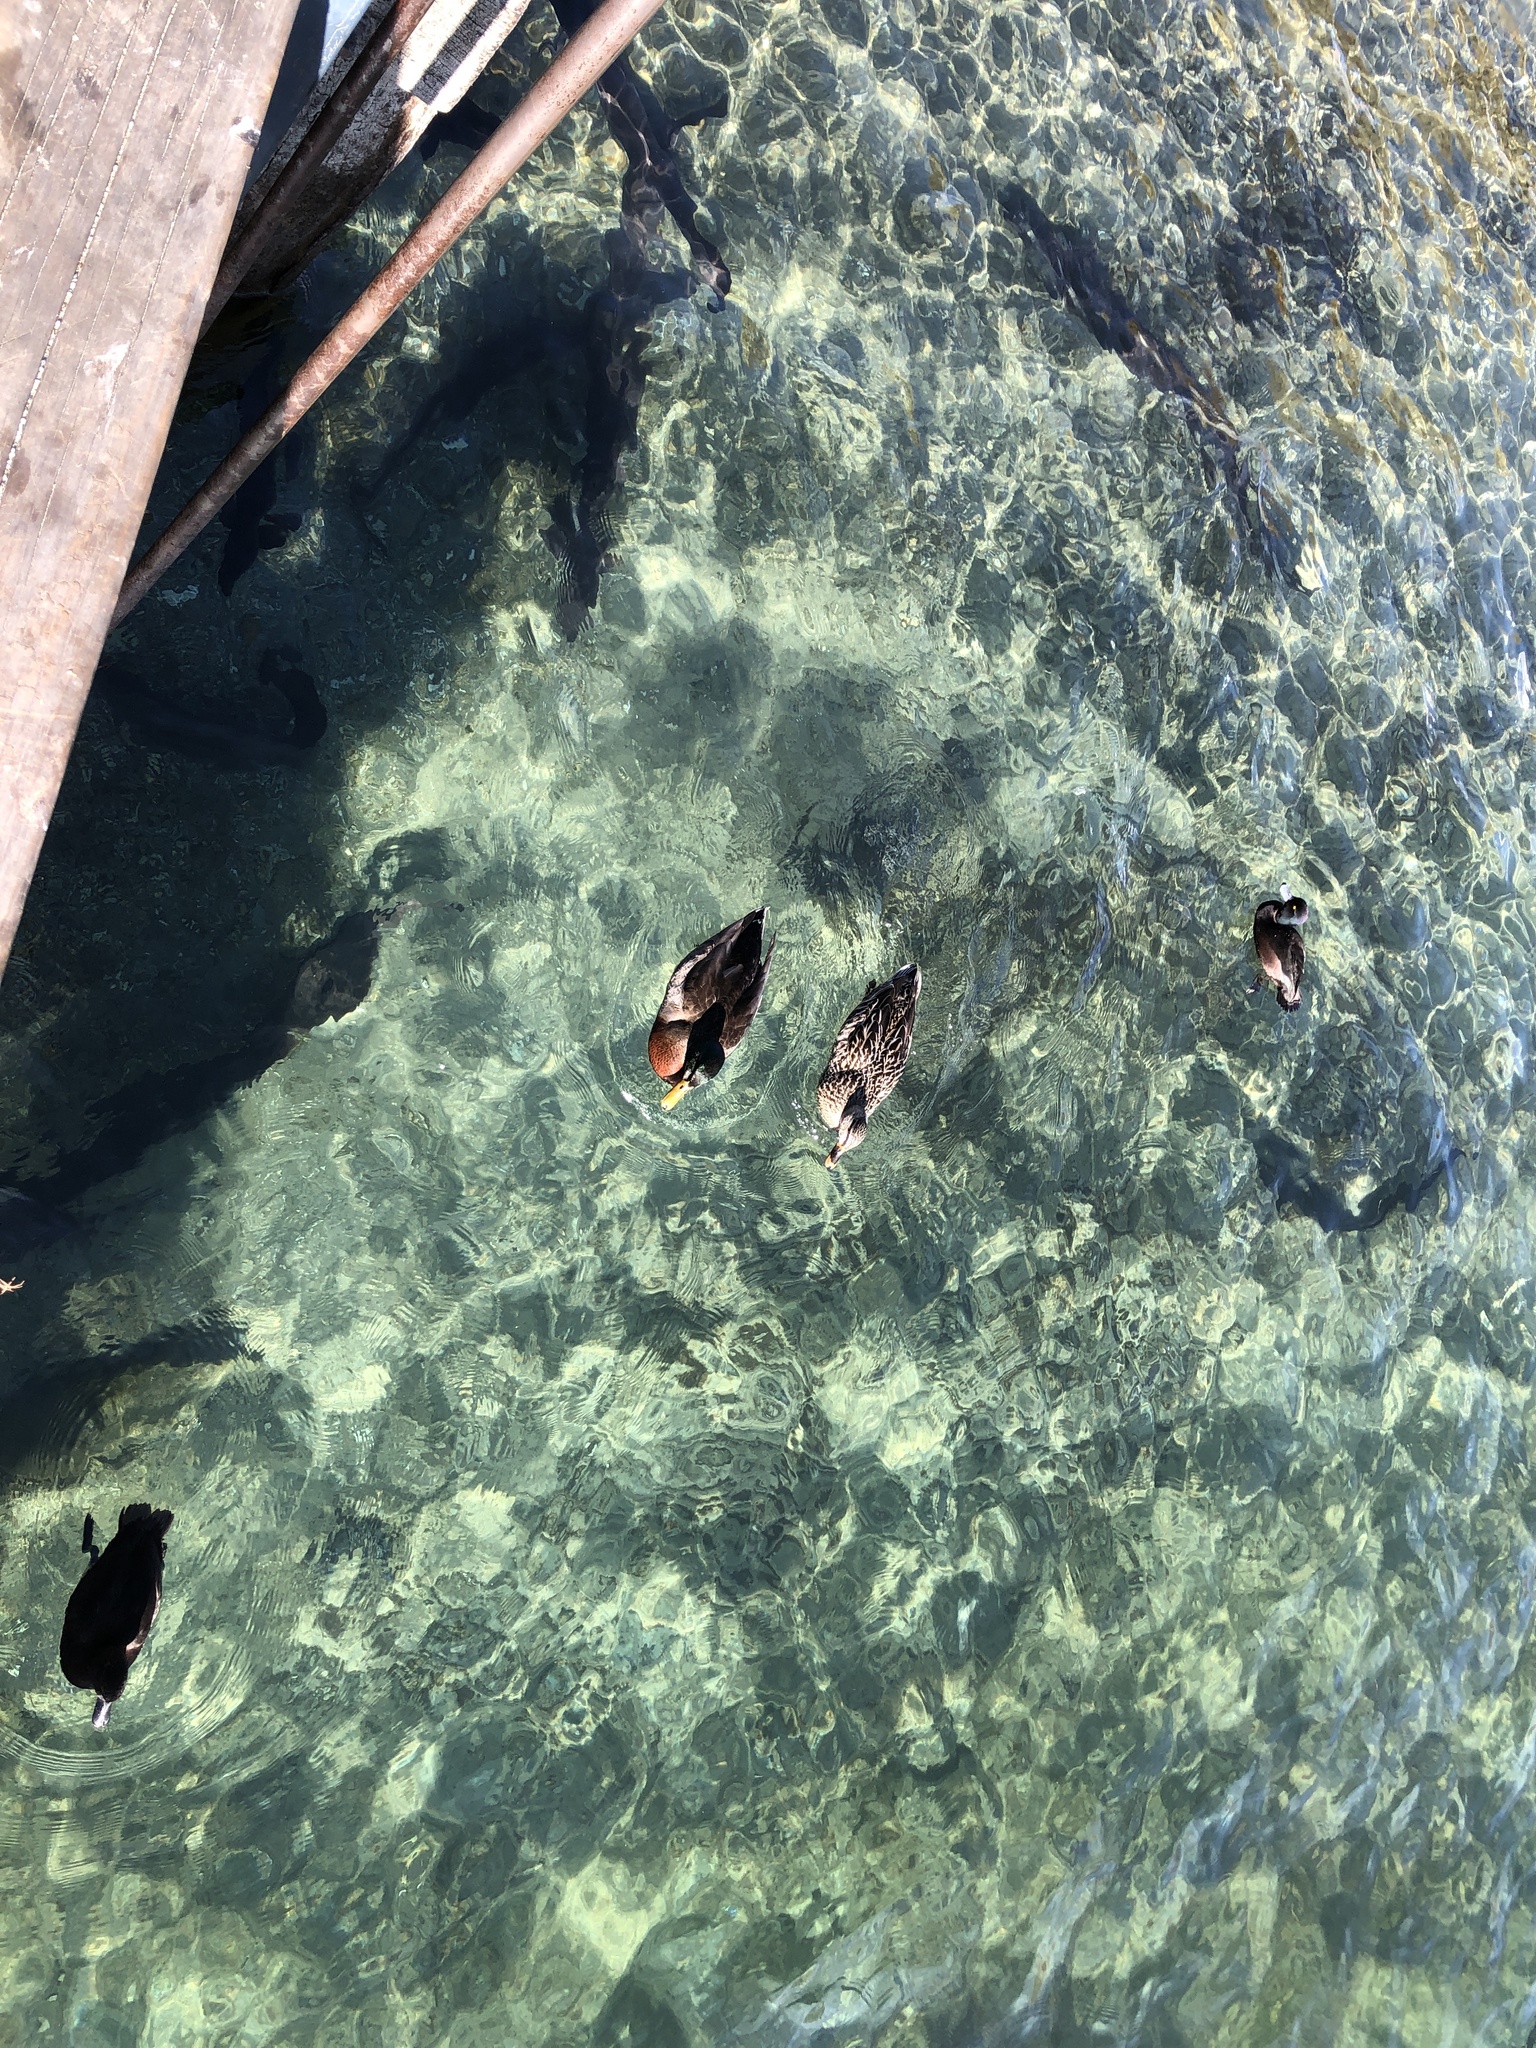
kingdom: Animalia
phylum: Chordata
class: Aves
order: Anseriformes
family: Anatidae
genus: Aythya
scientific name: Aythya novaeseelandiae
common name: New zealand scaup
